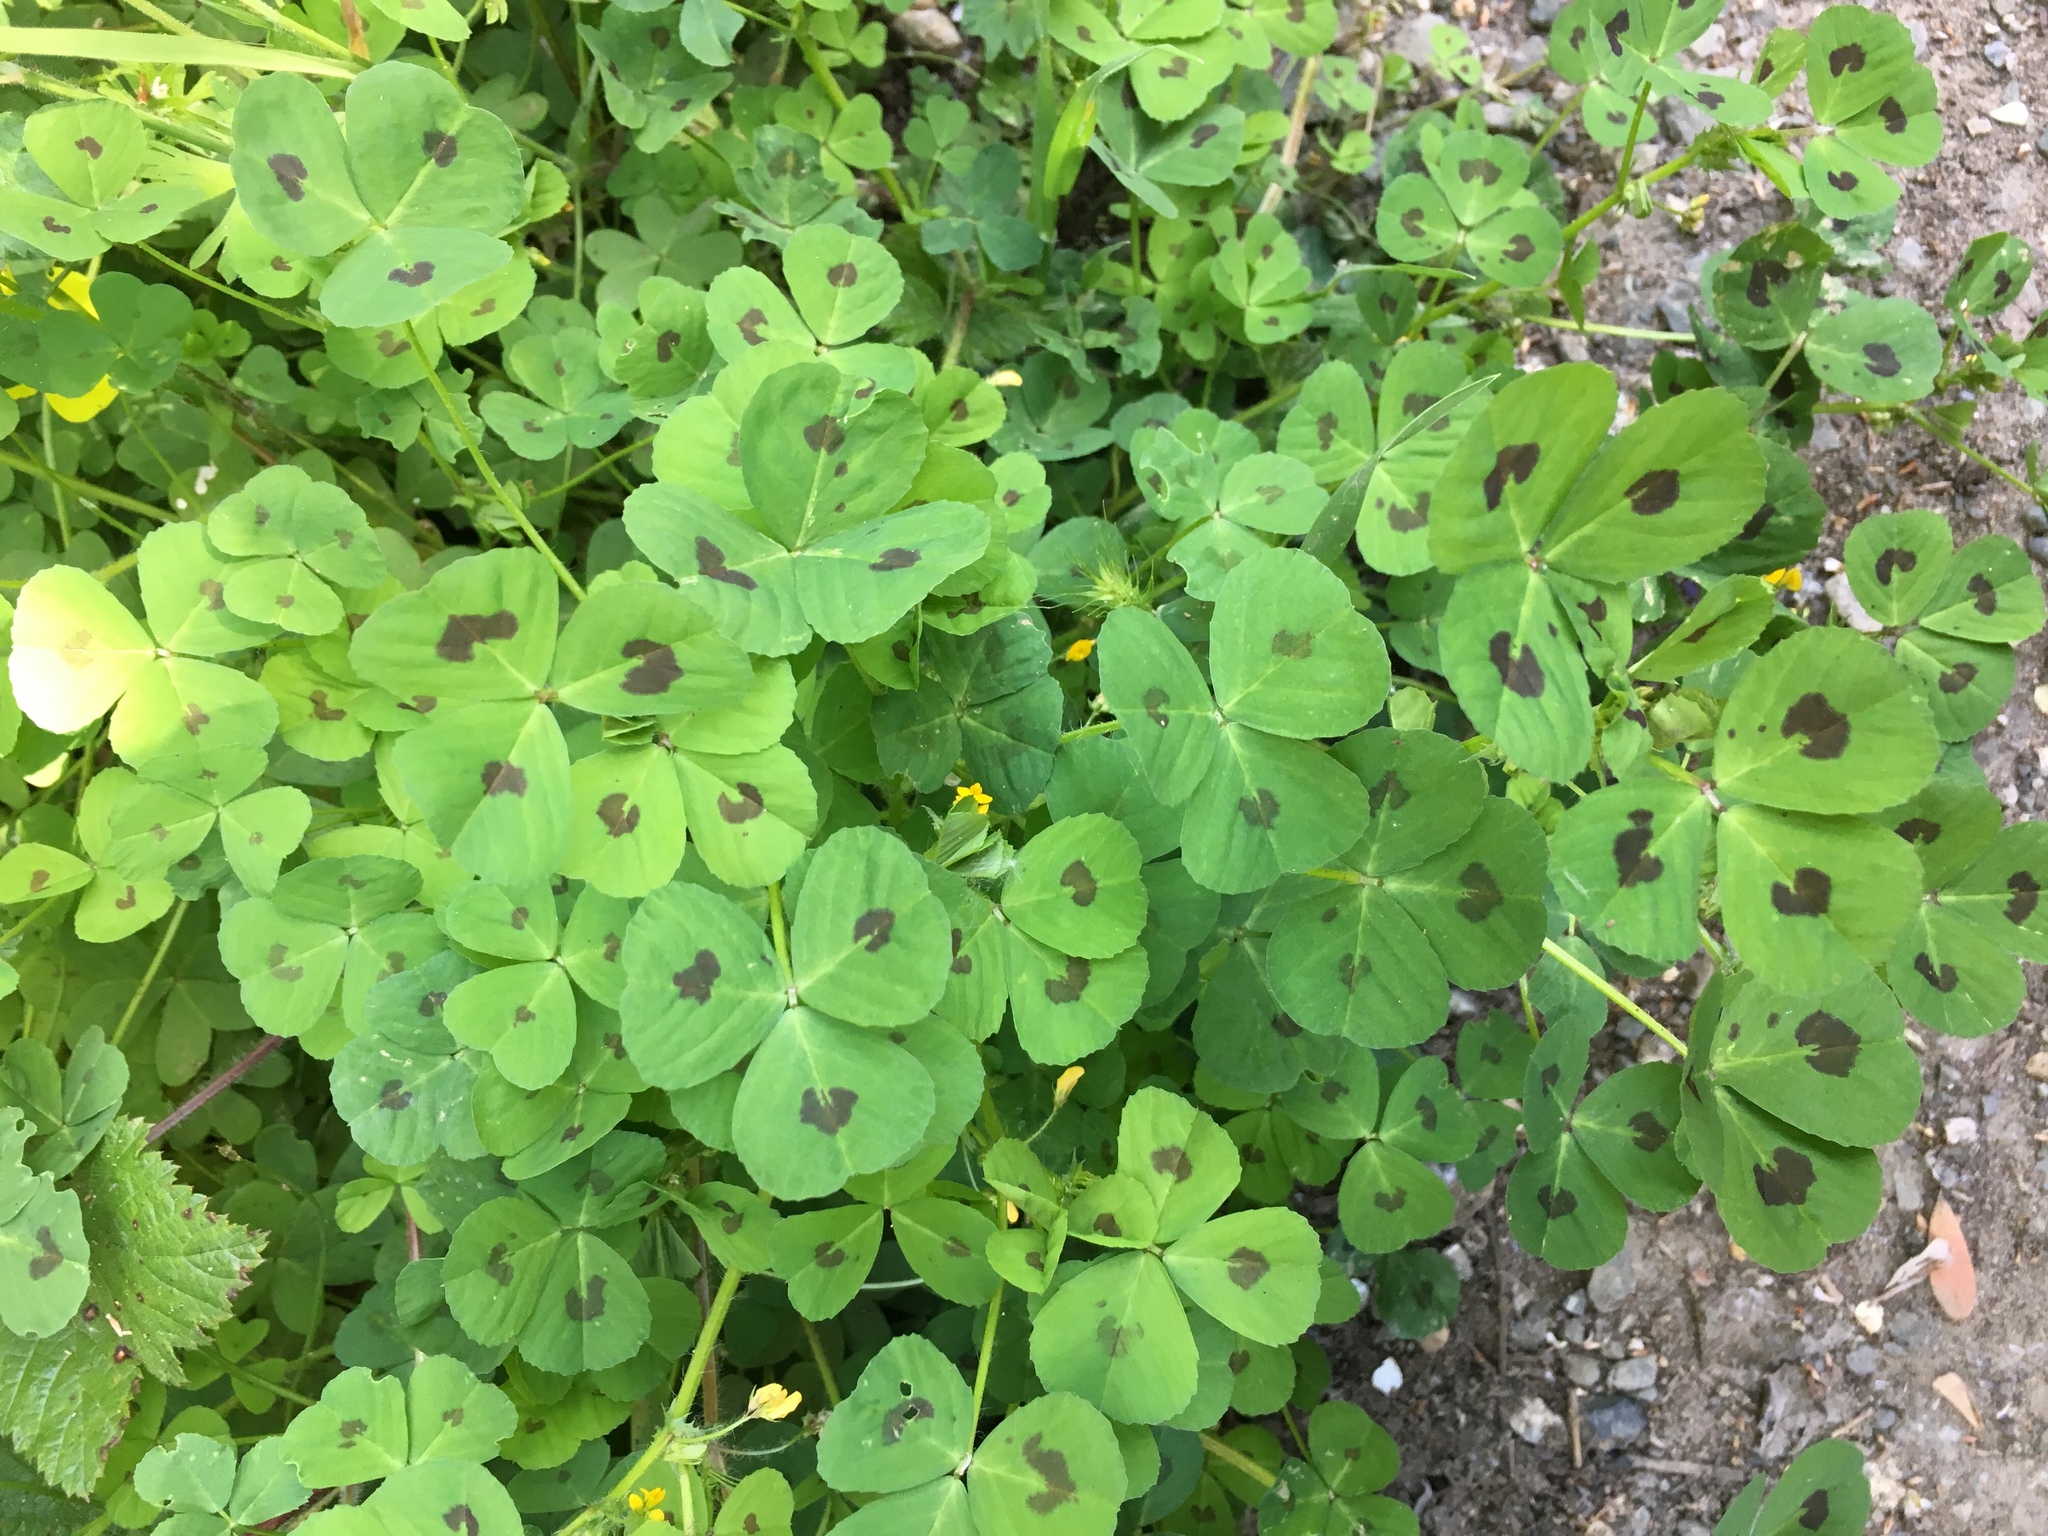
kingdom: Plantae
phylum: Tracheophyta
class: Magnoliopsida
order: Fabales
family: Fabaceae
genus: Medicago
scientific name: Medicago arabica
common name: Spotted medick
